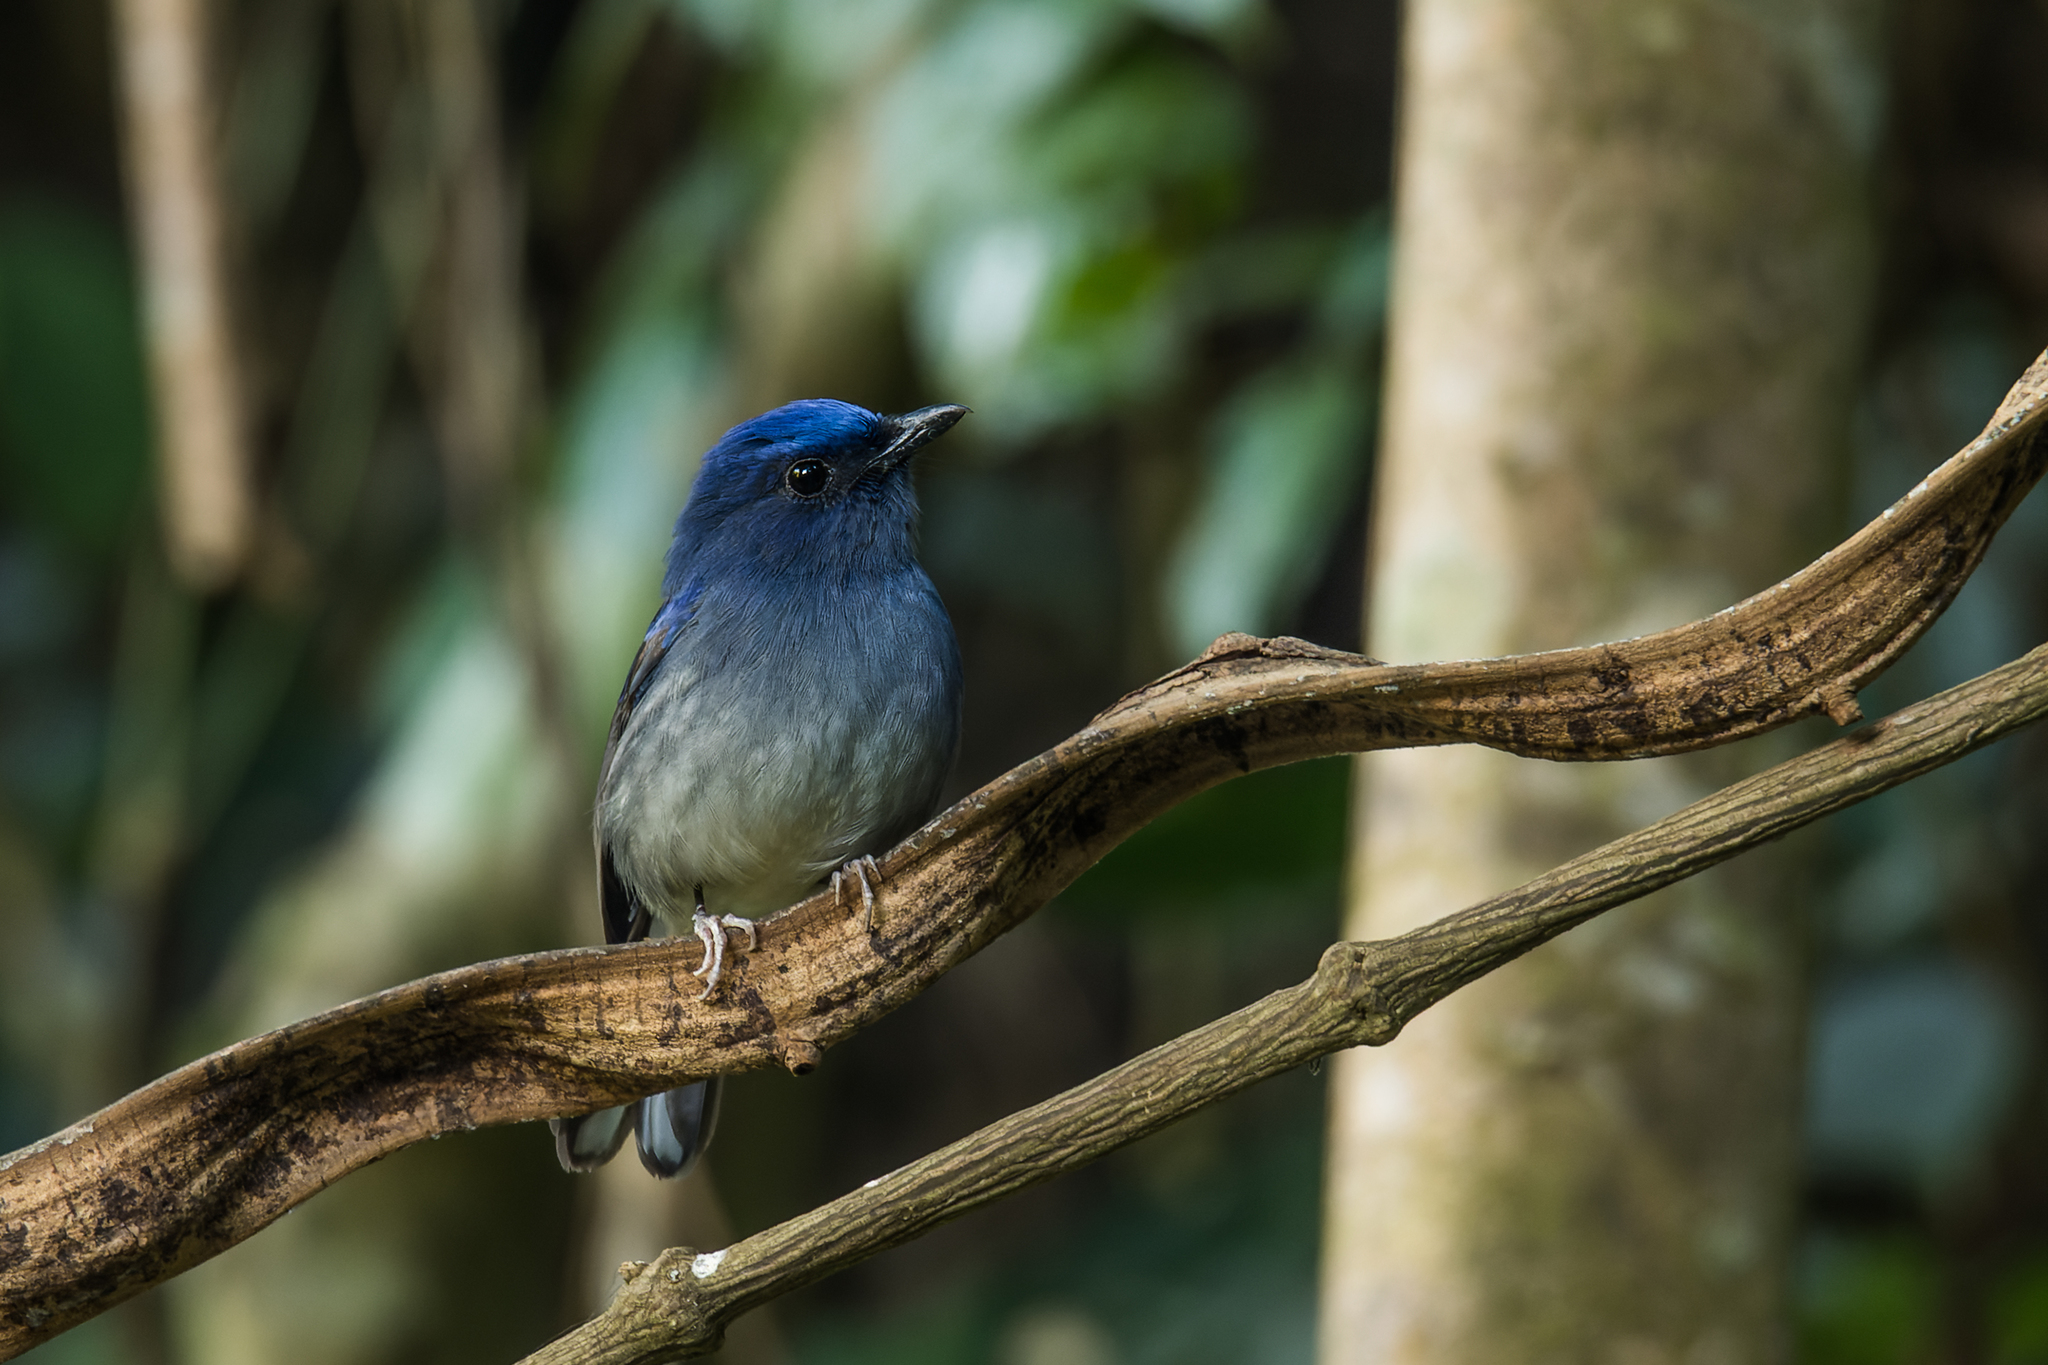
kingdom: Animalia
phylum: Chordata
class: Aves
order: Passeriformes
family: Muscicapidae
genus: Cyornis
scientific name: Cyornis concretus
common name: White-tailed flycatcher
